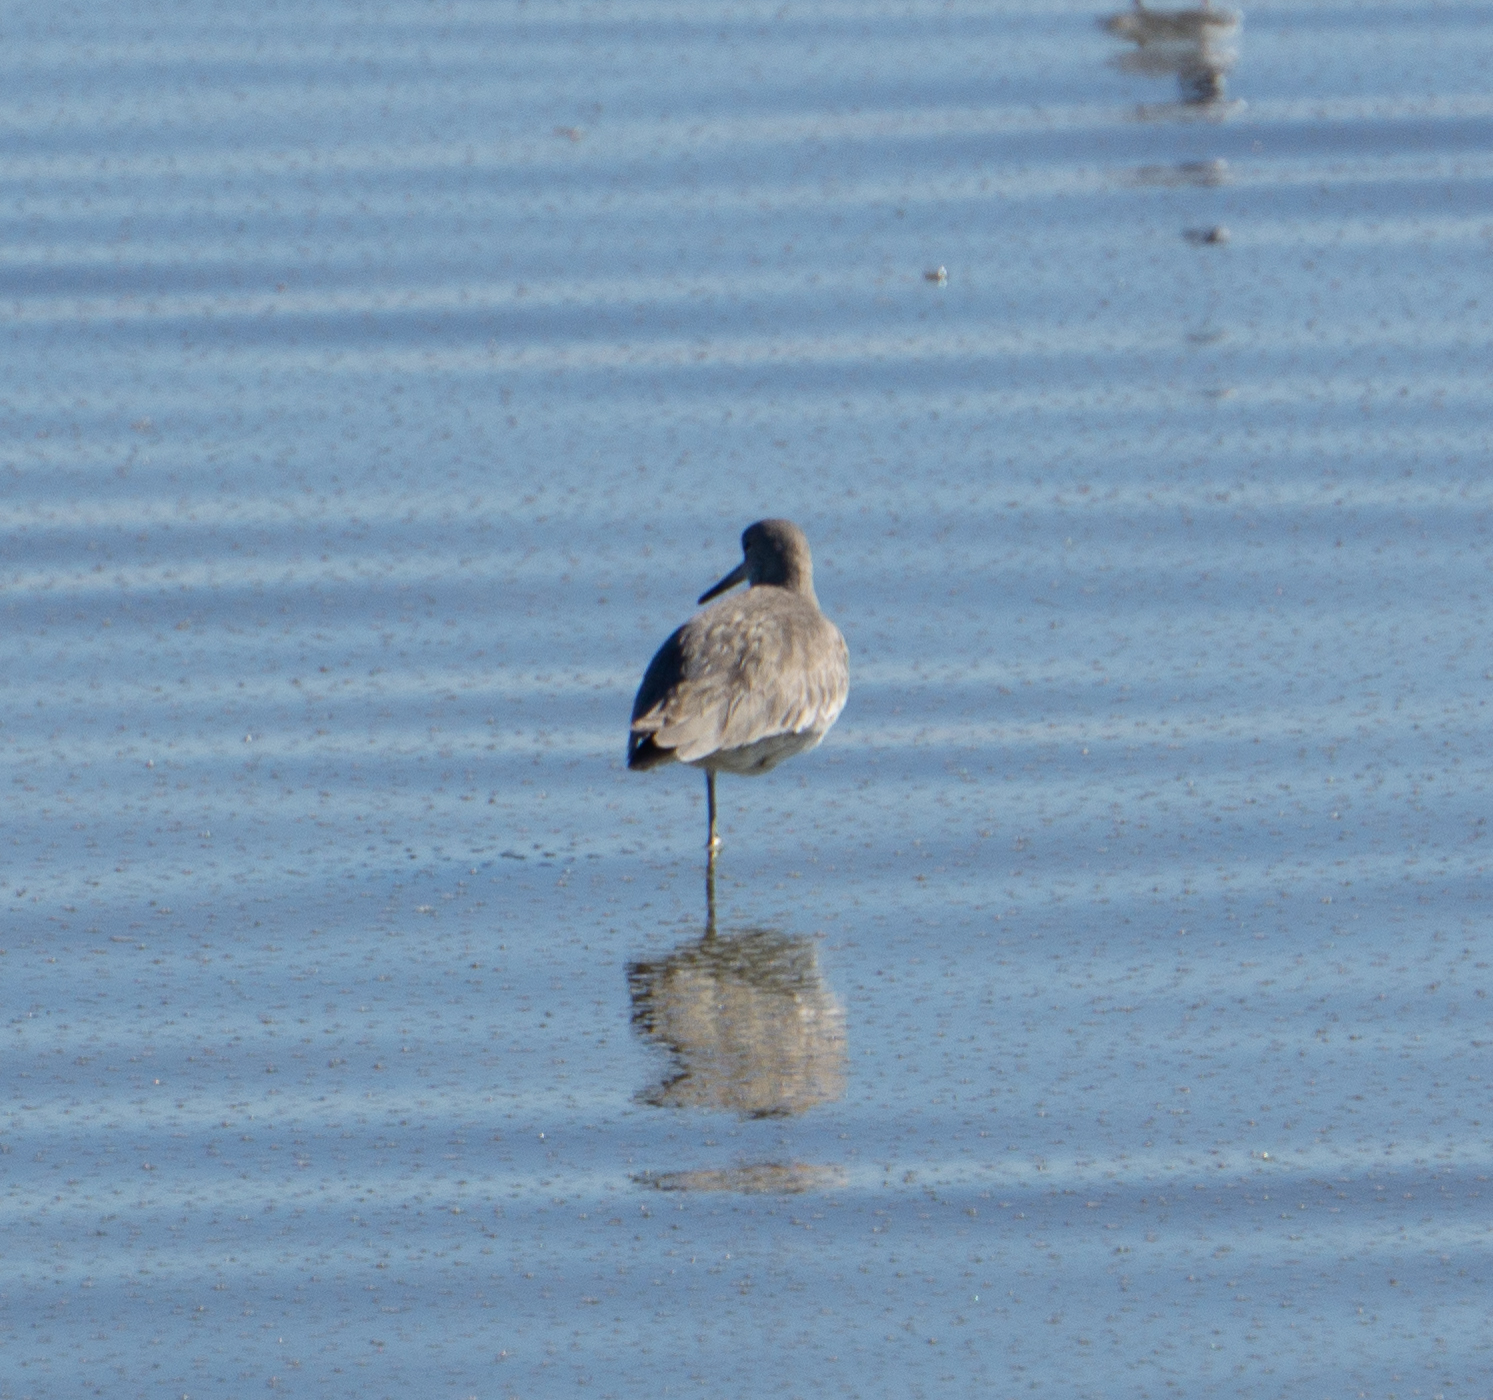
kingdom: Animalia
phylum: Chordata
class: Aves
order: Charadriiformes
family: Scolopacidae
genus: Tringa
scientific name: Tringa semipalmata
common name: Willet
